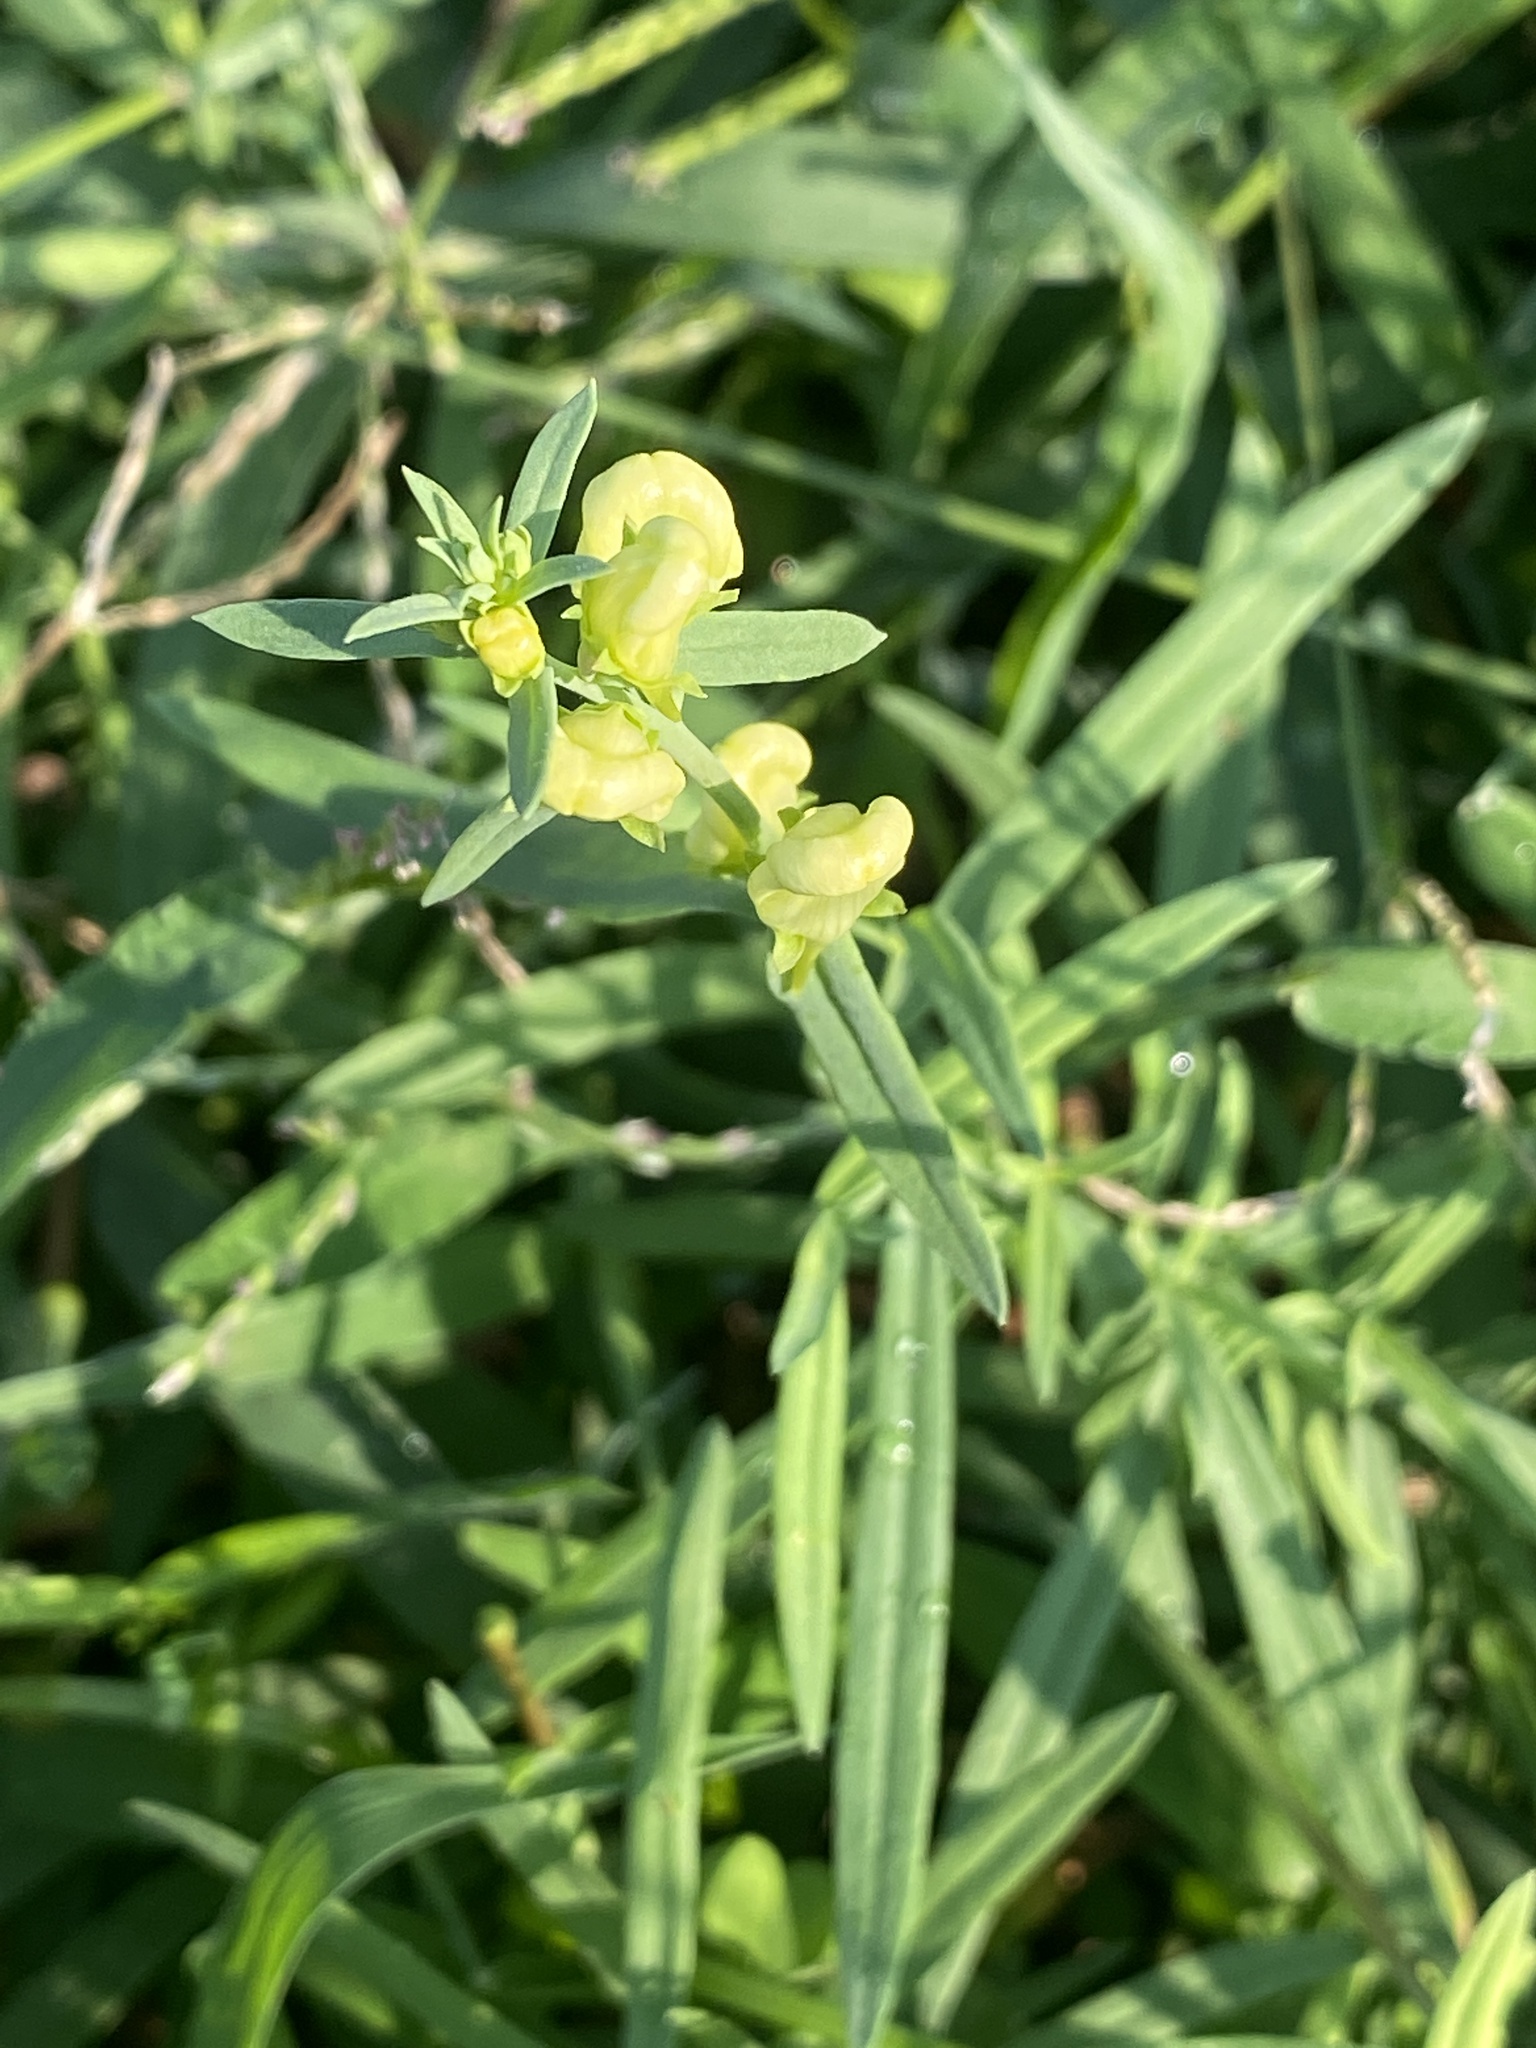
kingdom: Plantae
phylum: Tracheophyta
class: Magnoliopsida
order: Lamiales
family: Plantaginaceae
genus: Linaria
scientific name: Linaria vulgaris
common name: Butter and eggs
